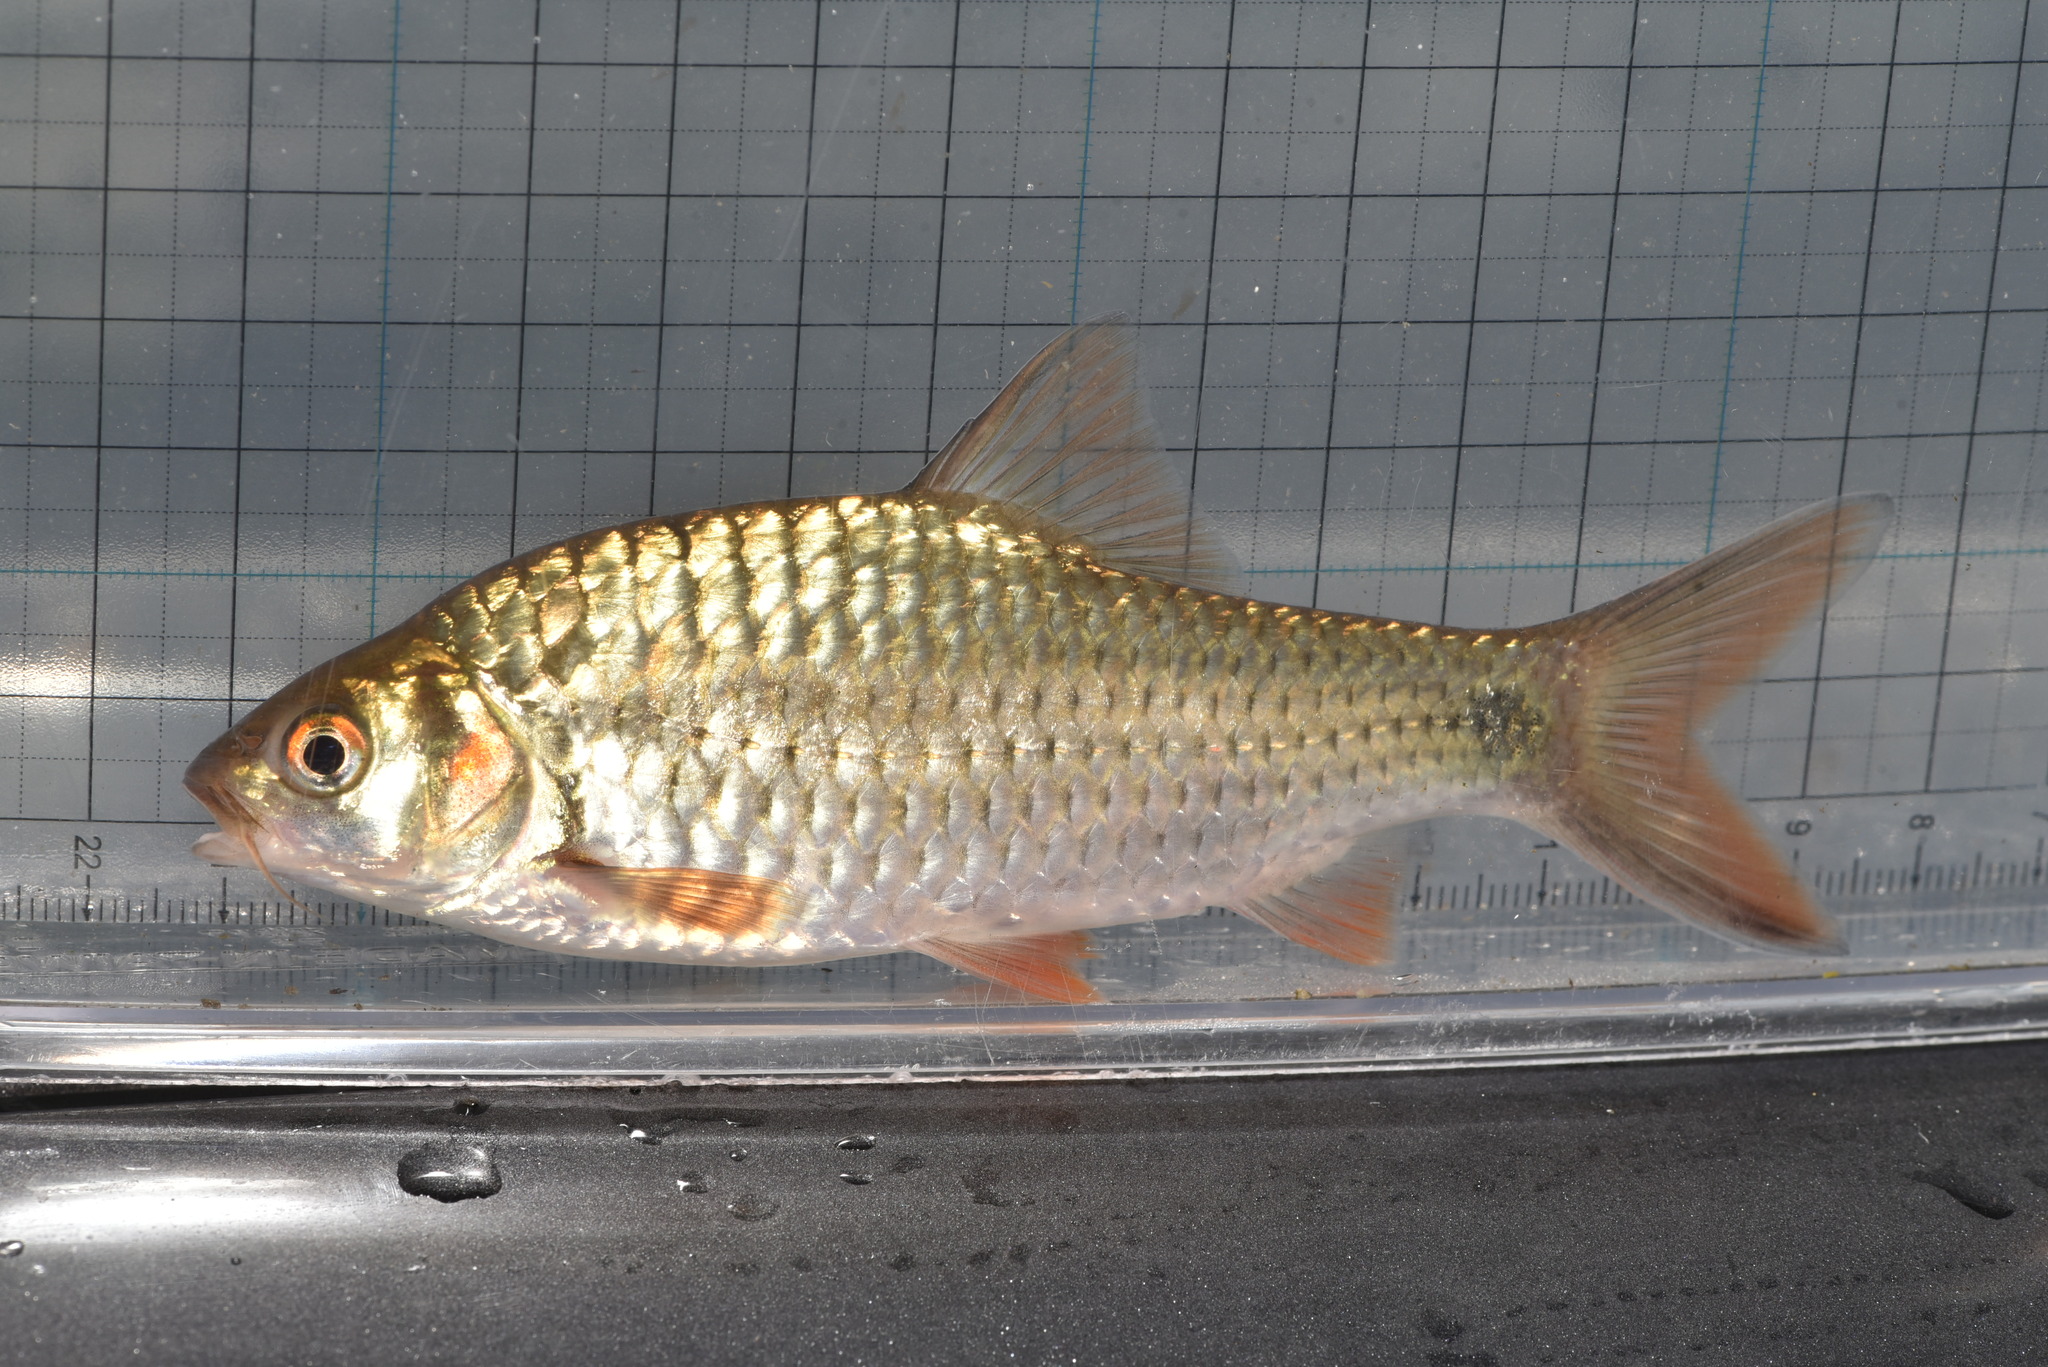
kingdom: Animalia
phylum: Chordata
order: Cypriniformes
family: Cyprinidae
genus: Systomus
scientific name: Systomus orphoides
